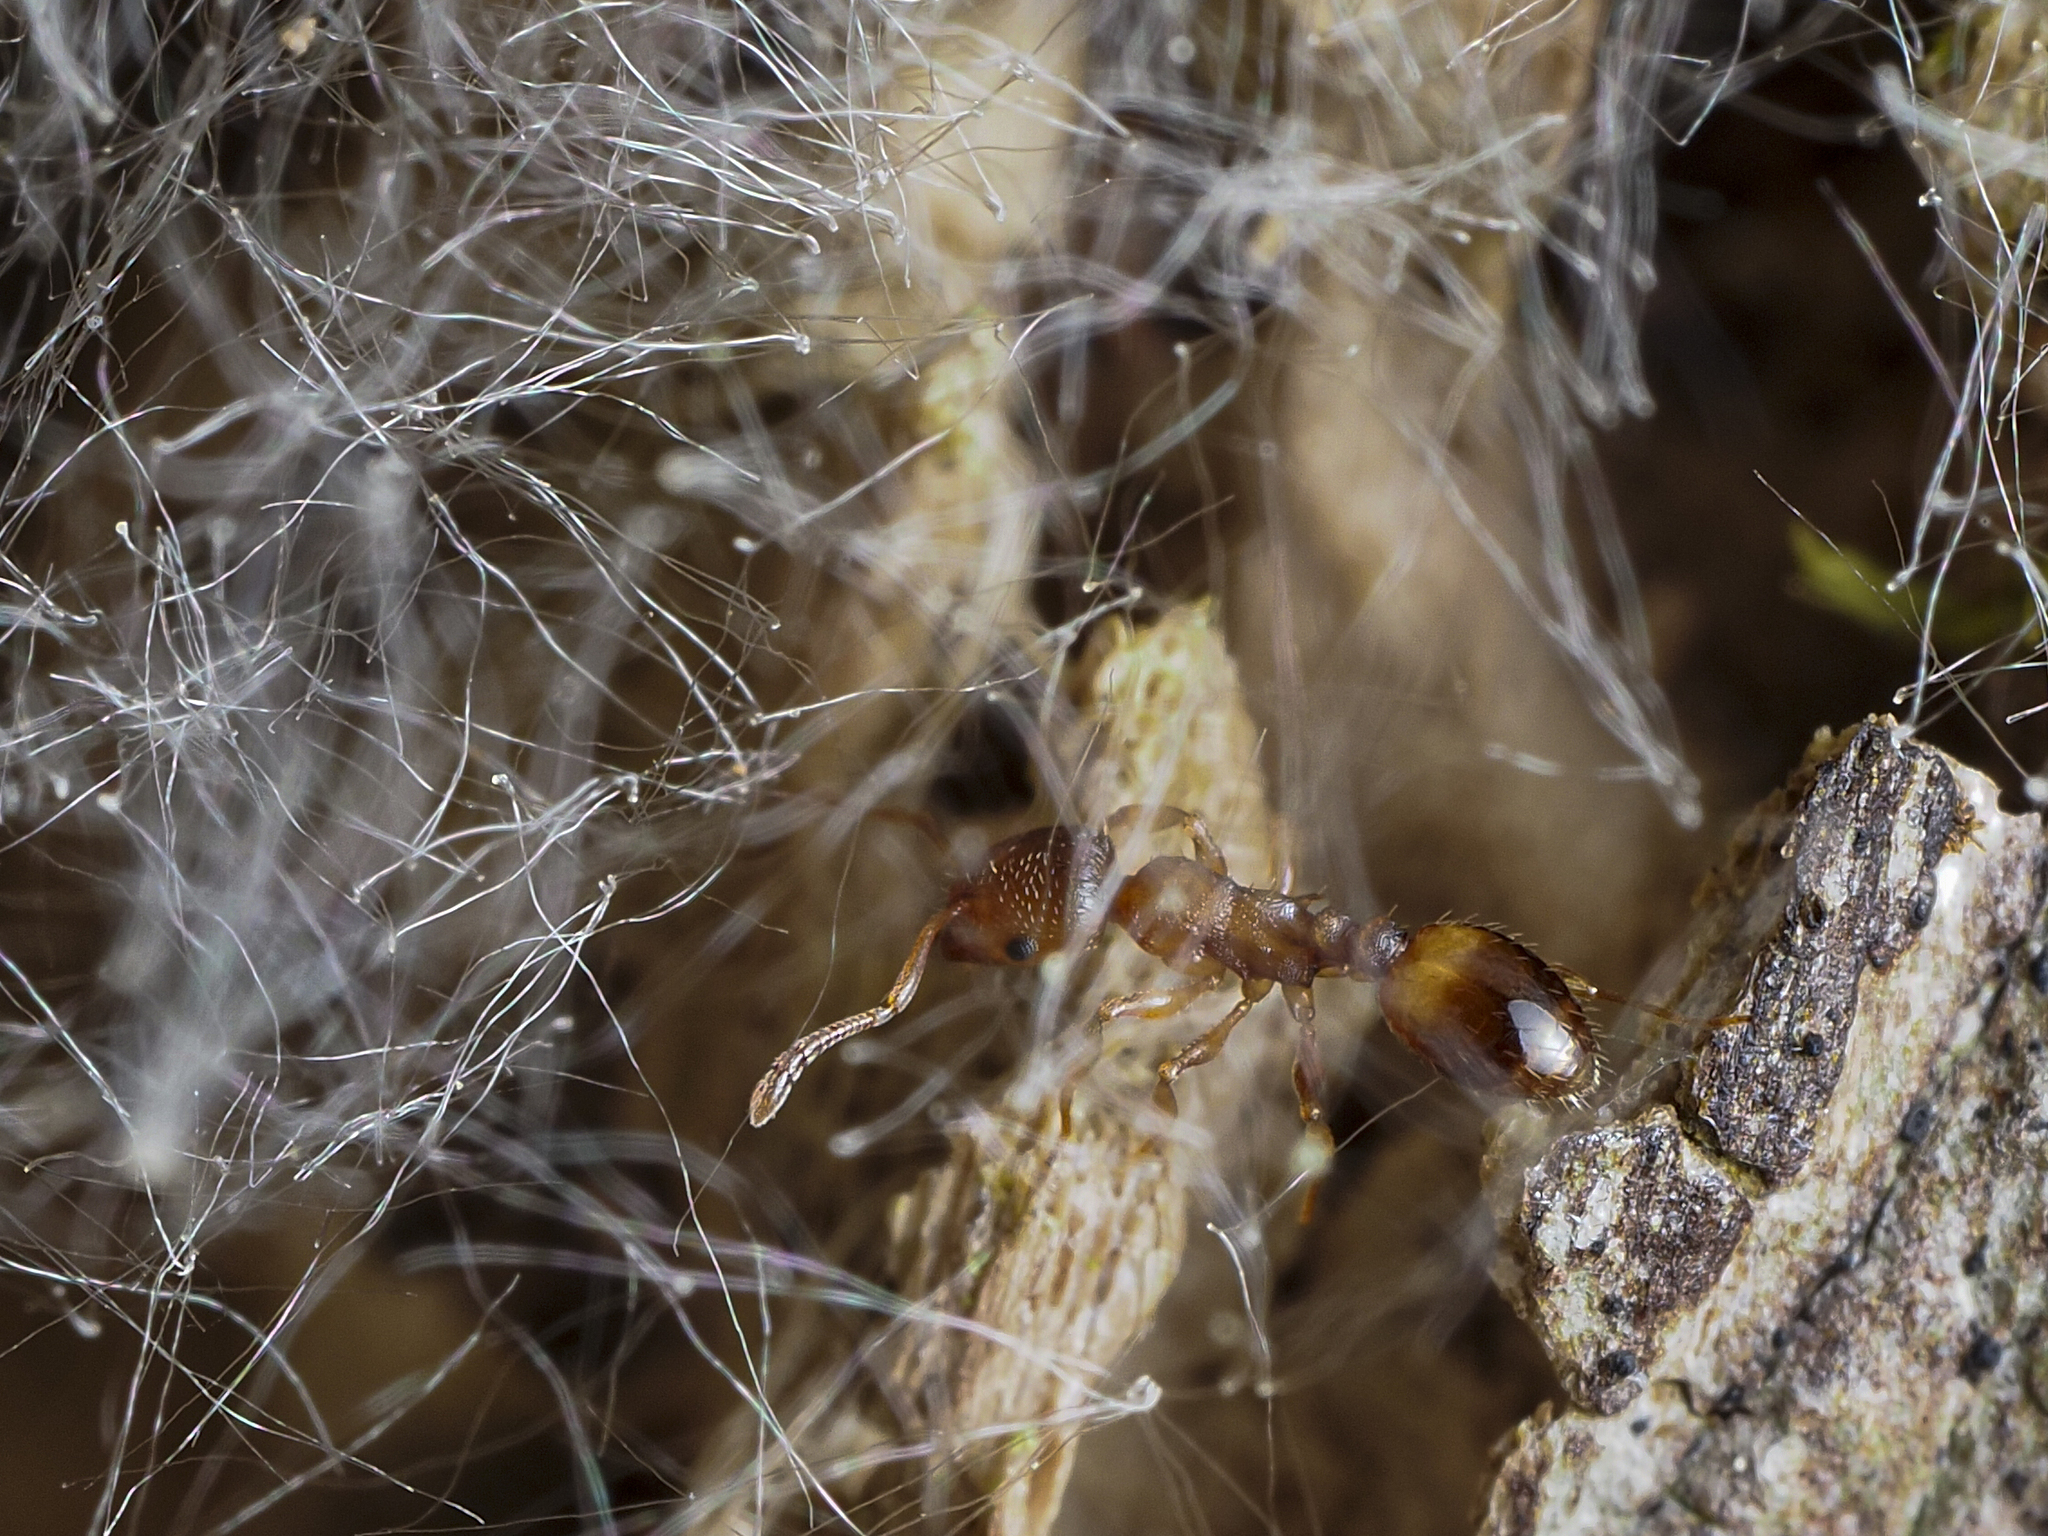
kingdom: Animalia
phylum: Arthropoda
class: Insecta
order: Hymenoptera
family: Formicidae
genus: Temnothorax
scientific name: Temnothorax crassispinus
